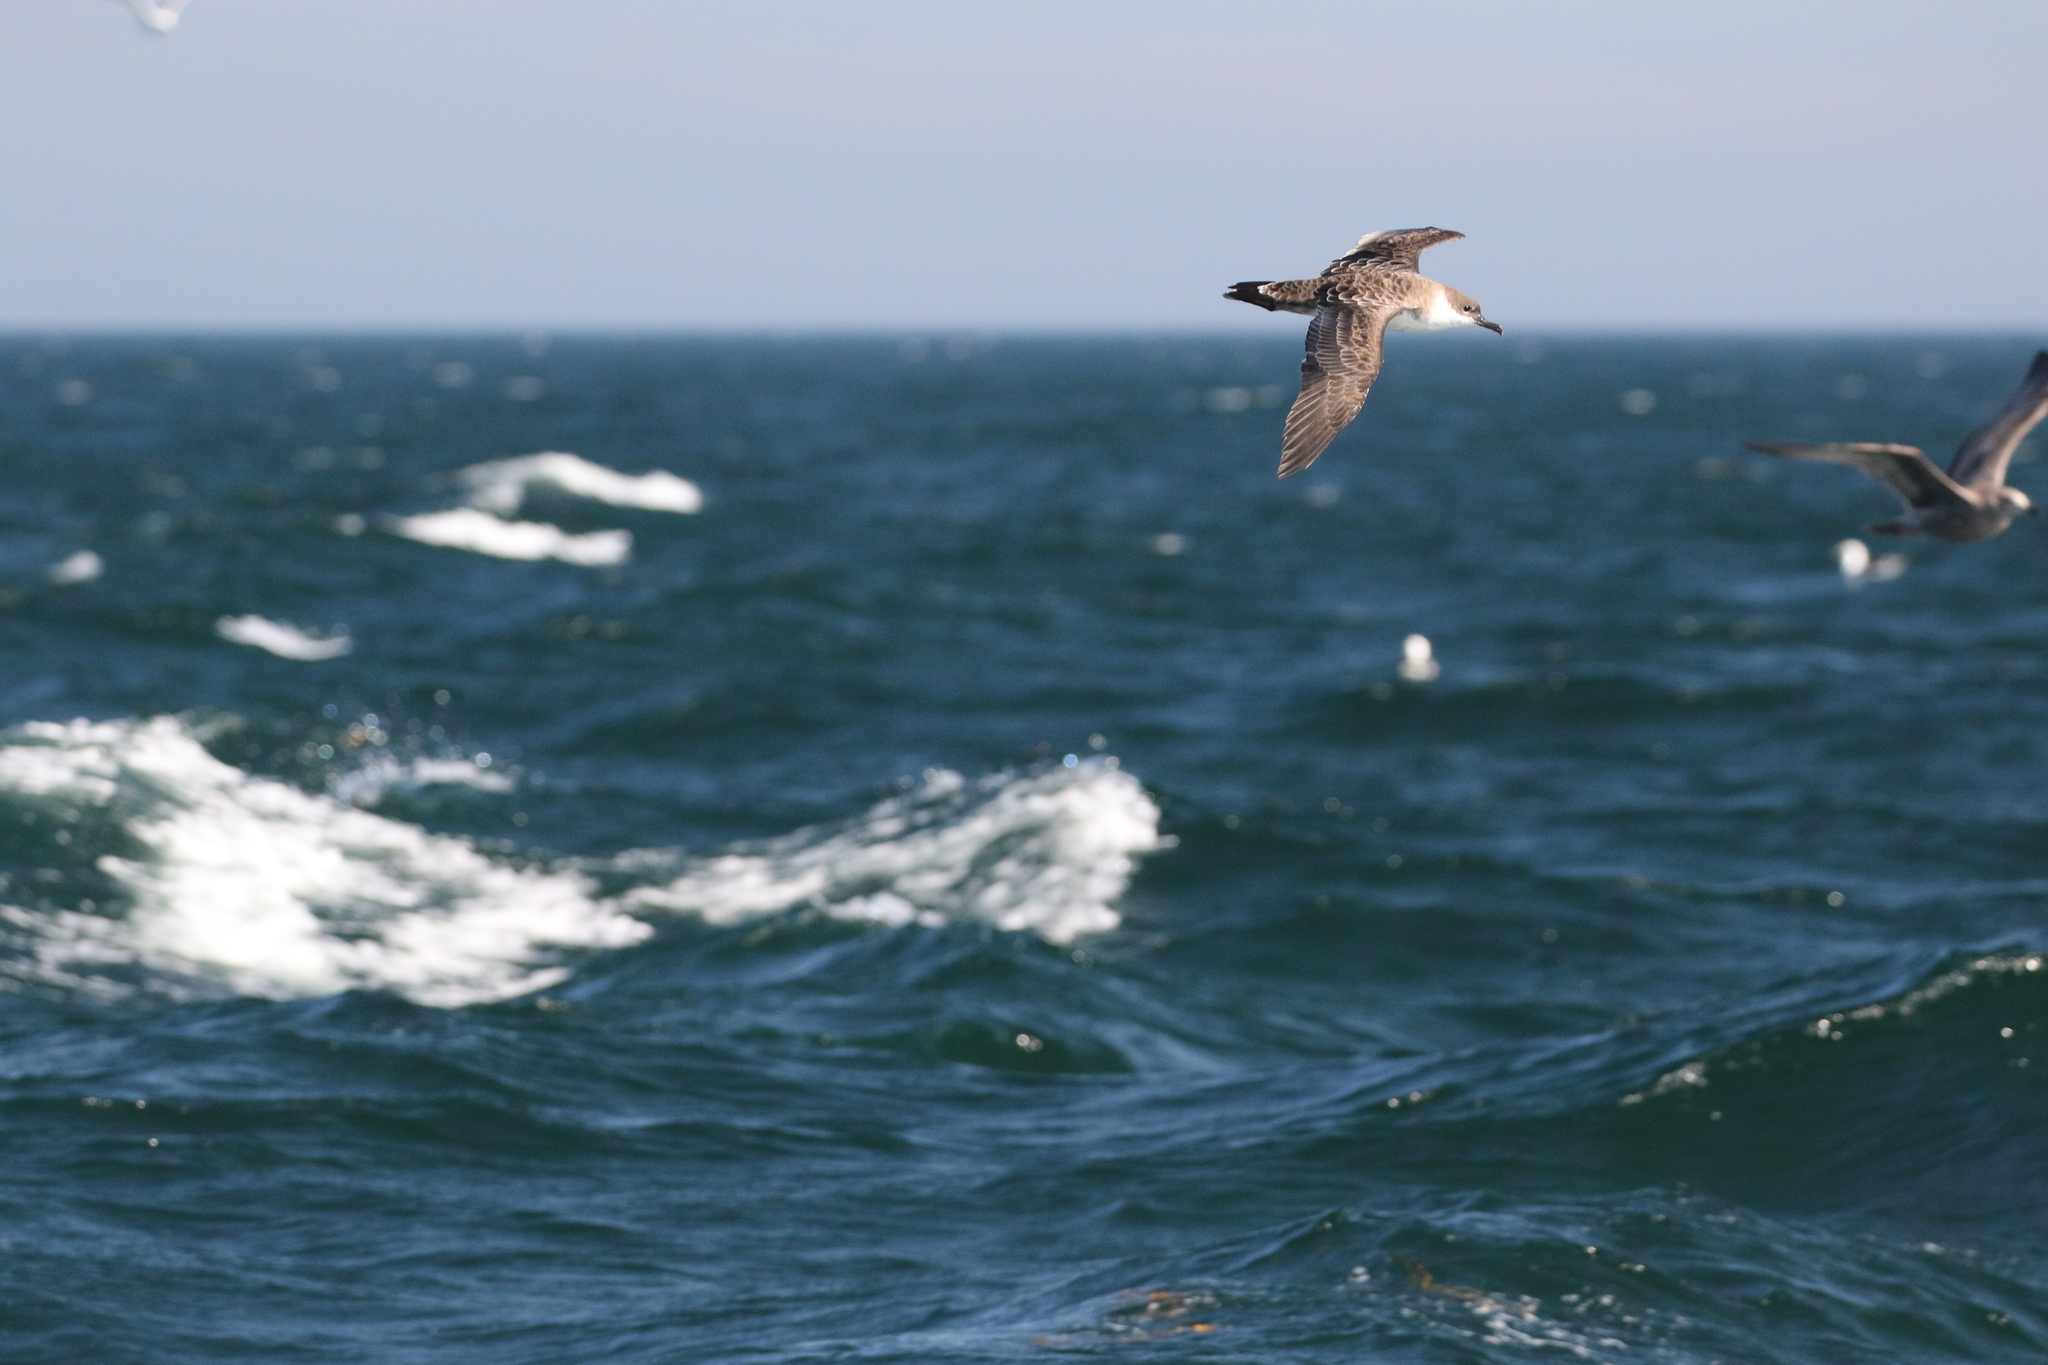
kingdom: Animalia
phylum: Chordata
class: Aves
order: Procellariiformes
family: Procellariidae
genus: Puffinus
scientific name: Puffinus gravis
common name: Great shearwater
